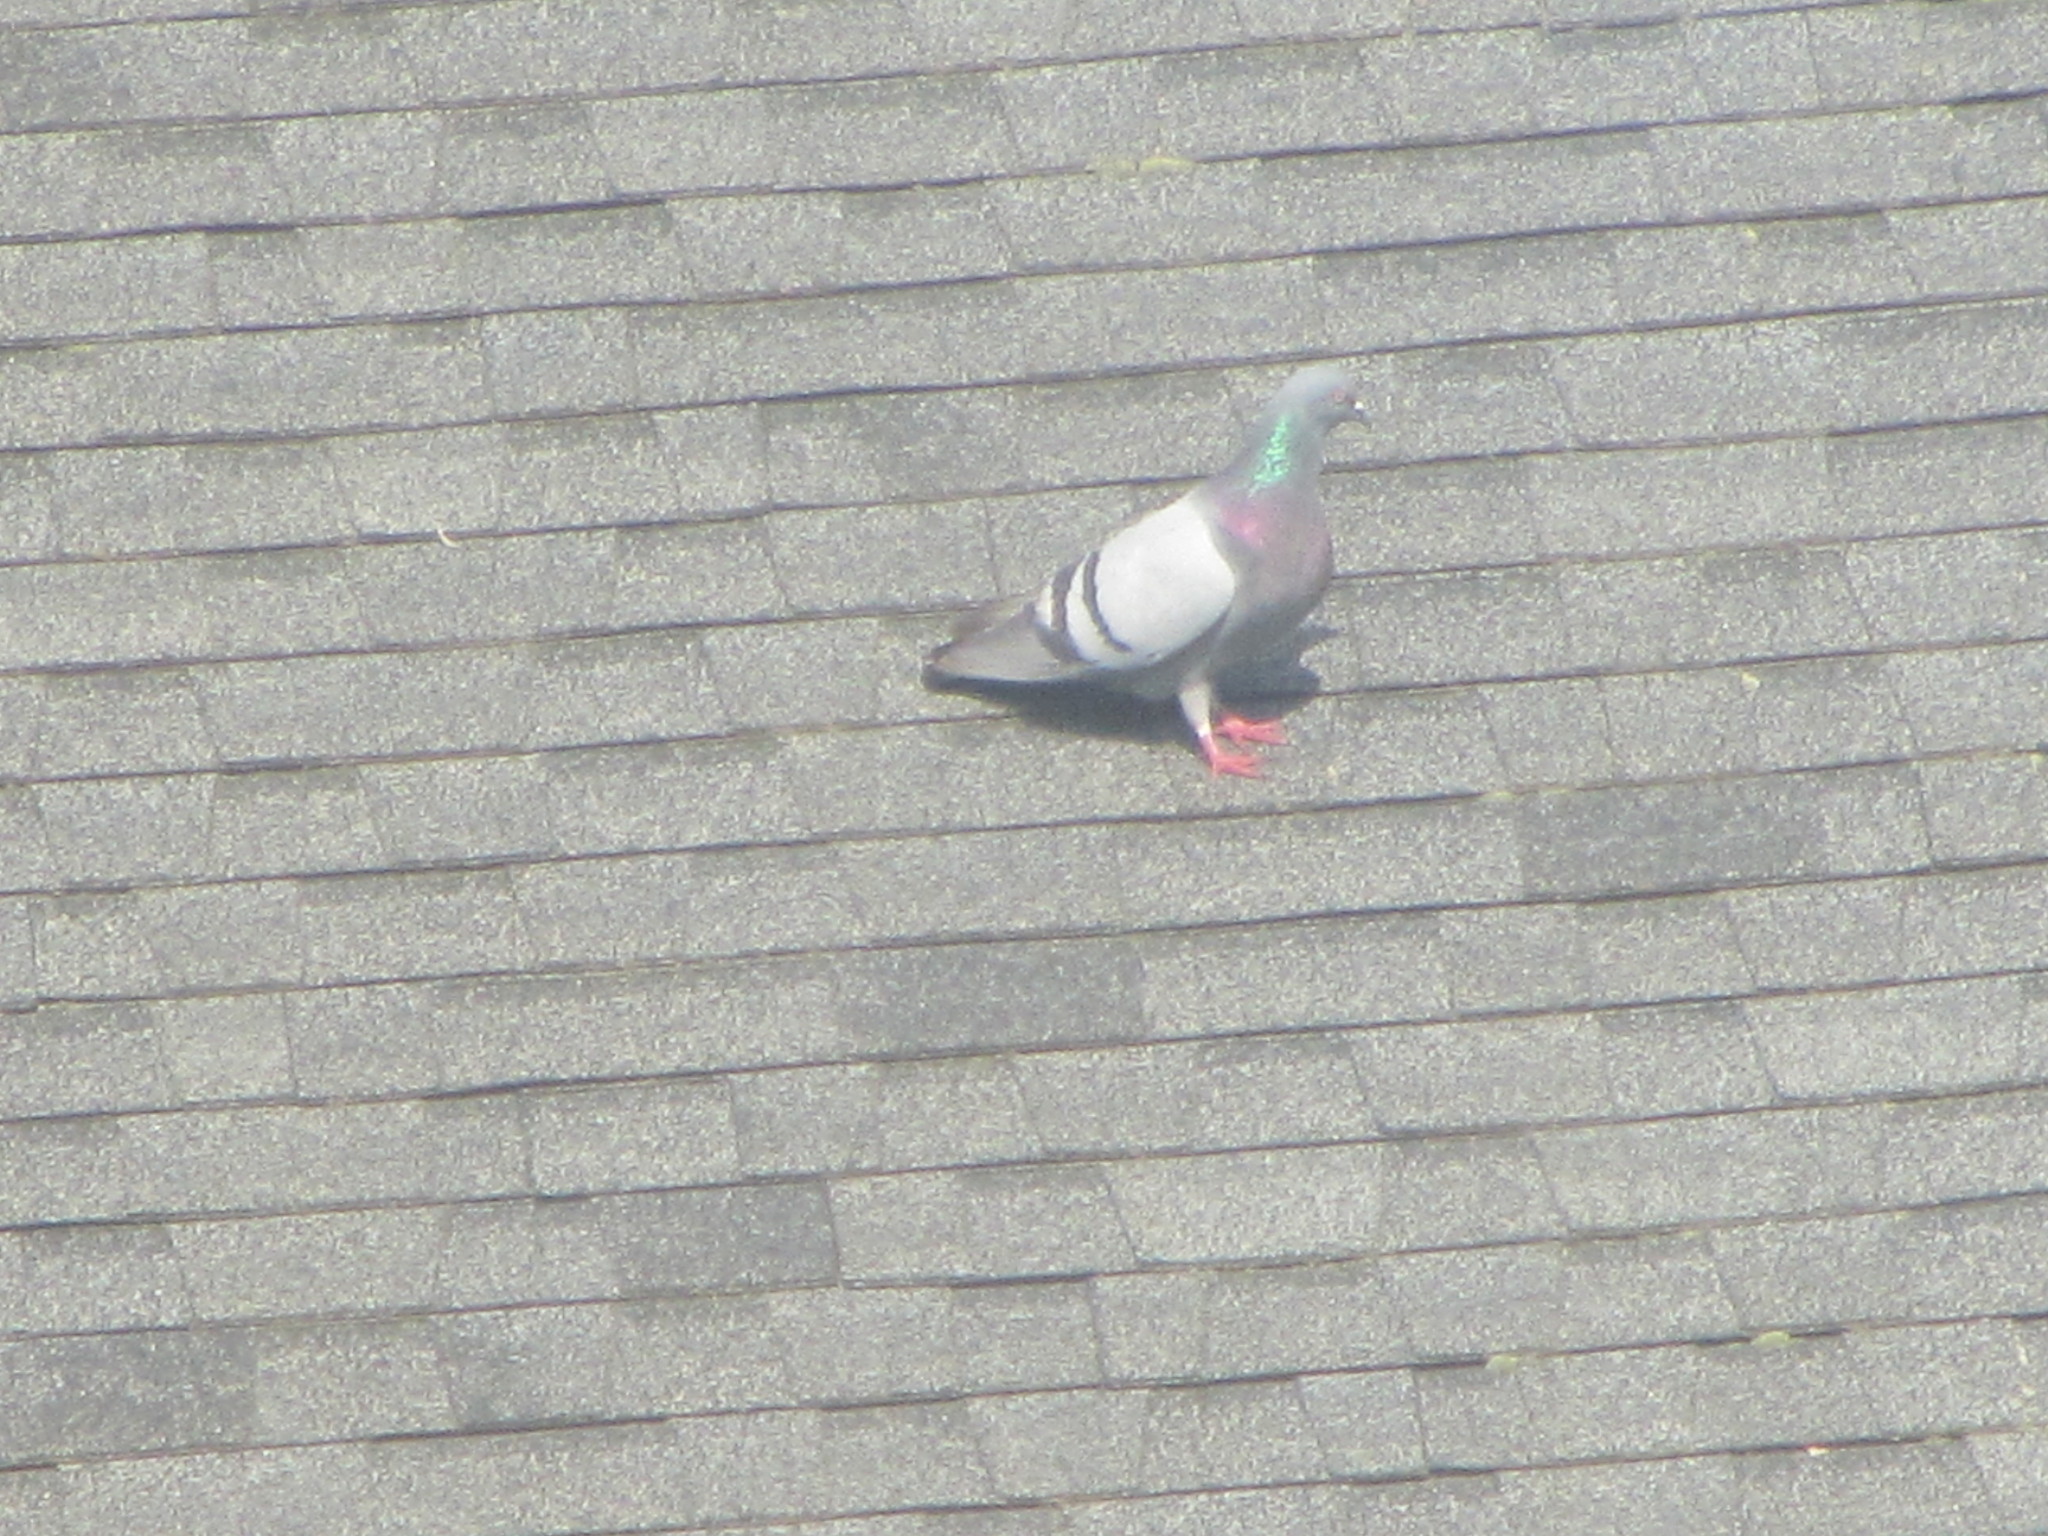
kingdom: Animalia
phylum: Chordata
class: Aves
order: Columbiformes
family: Columbidae
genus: Columba
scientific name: Columba livia
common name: Rock pigeon
